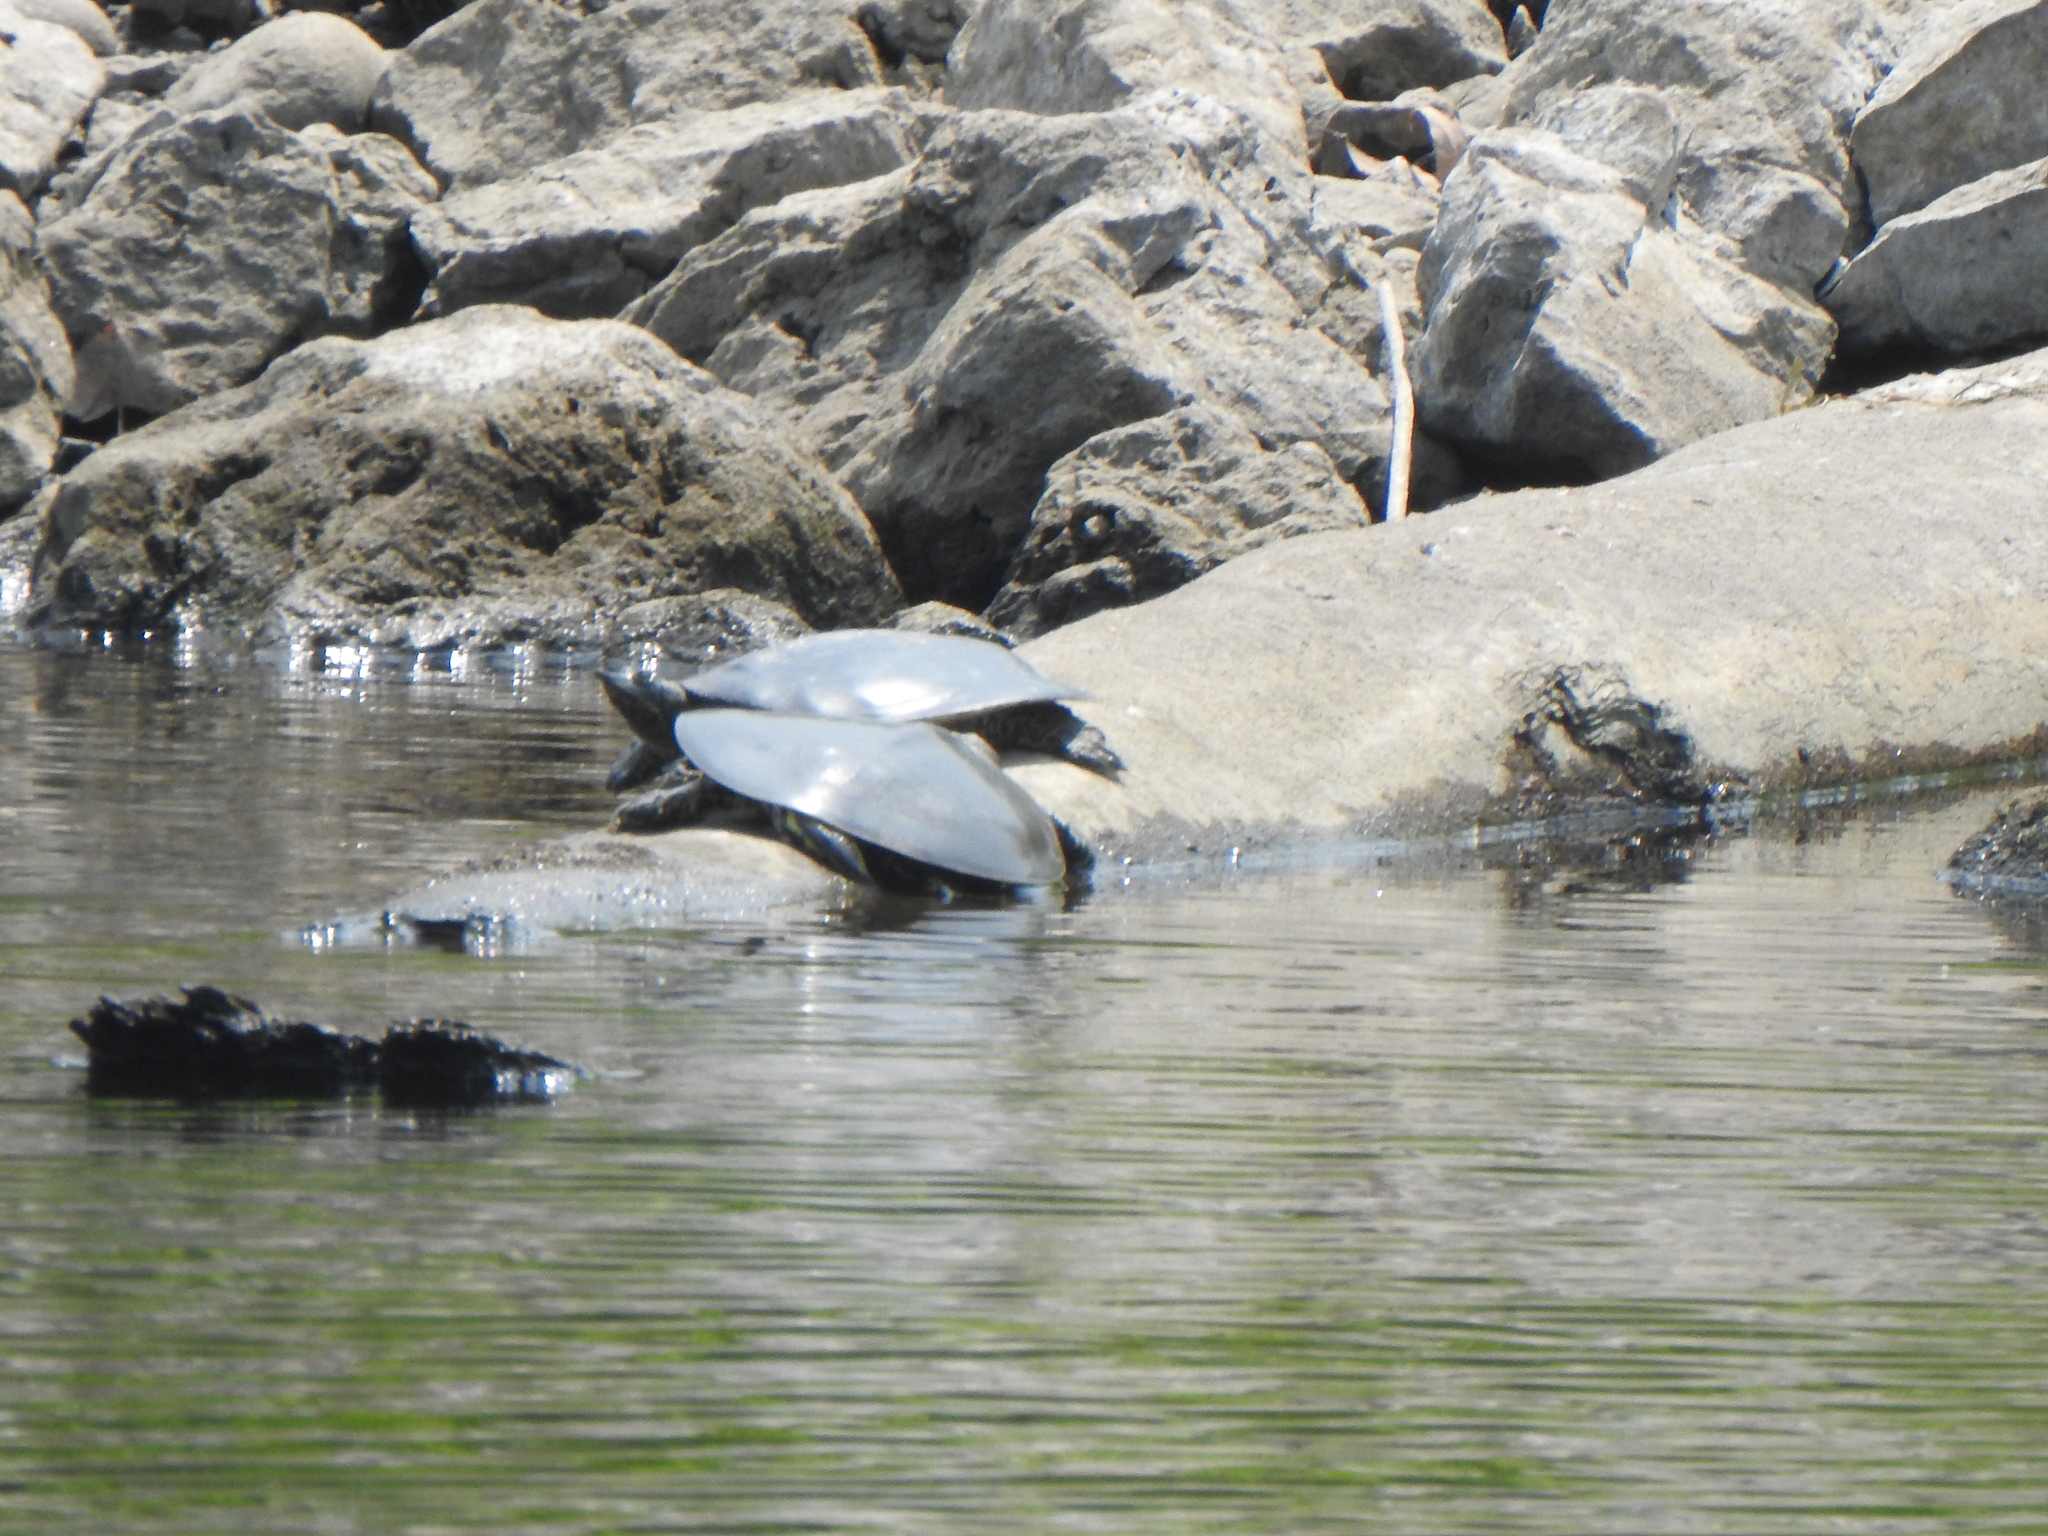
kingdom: Animalia
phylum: Chordata
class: Testudines
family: Trionychidae
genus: Apalone
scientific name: Apalone spinifera
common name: Spiny softshell turtle
